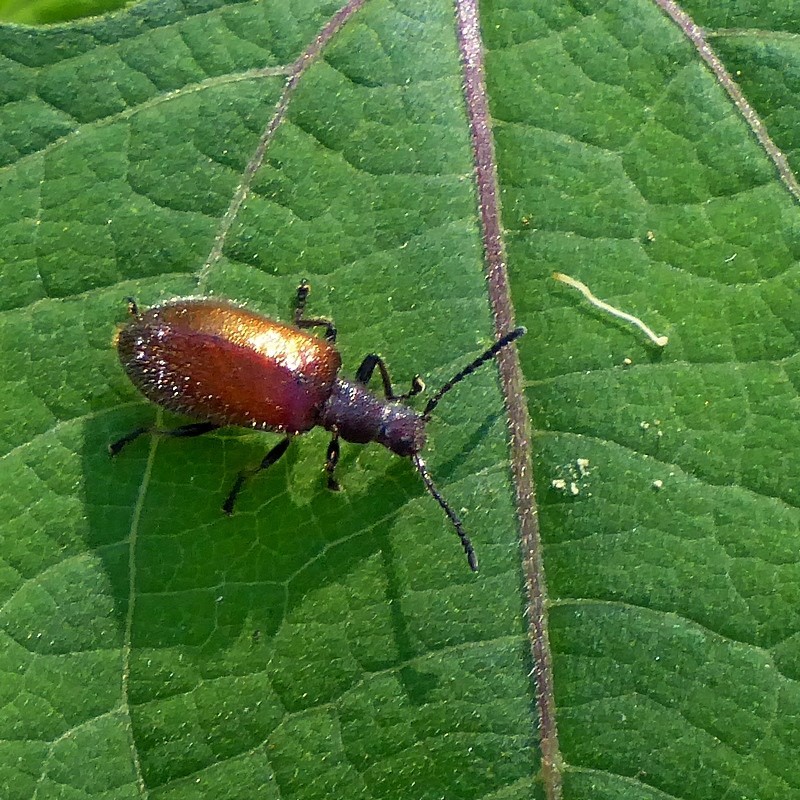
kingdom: Animalia
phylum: Arthropoda
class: Insecta
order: Coleoptera
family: Tenebrionidae
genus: Metriolagria
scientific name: Metriolagria affinis
